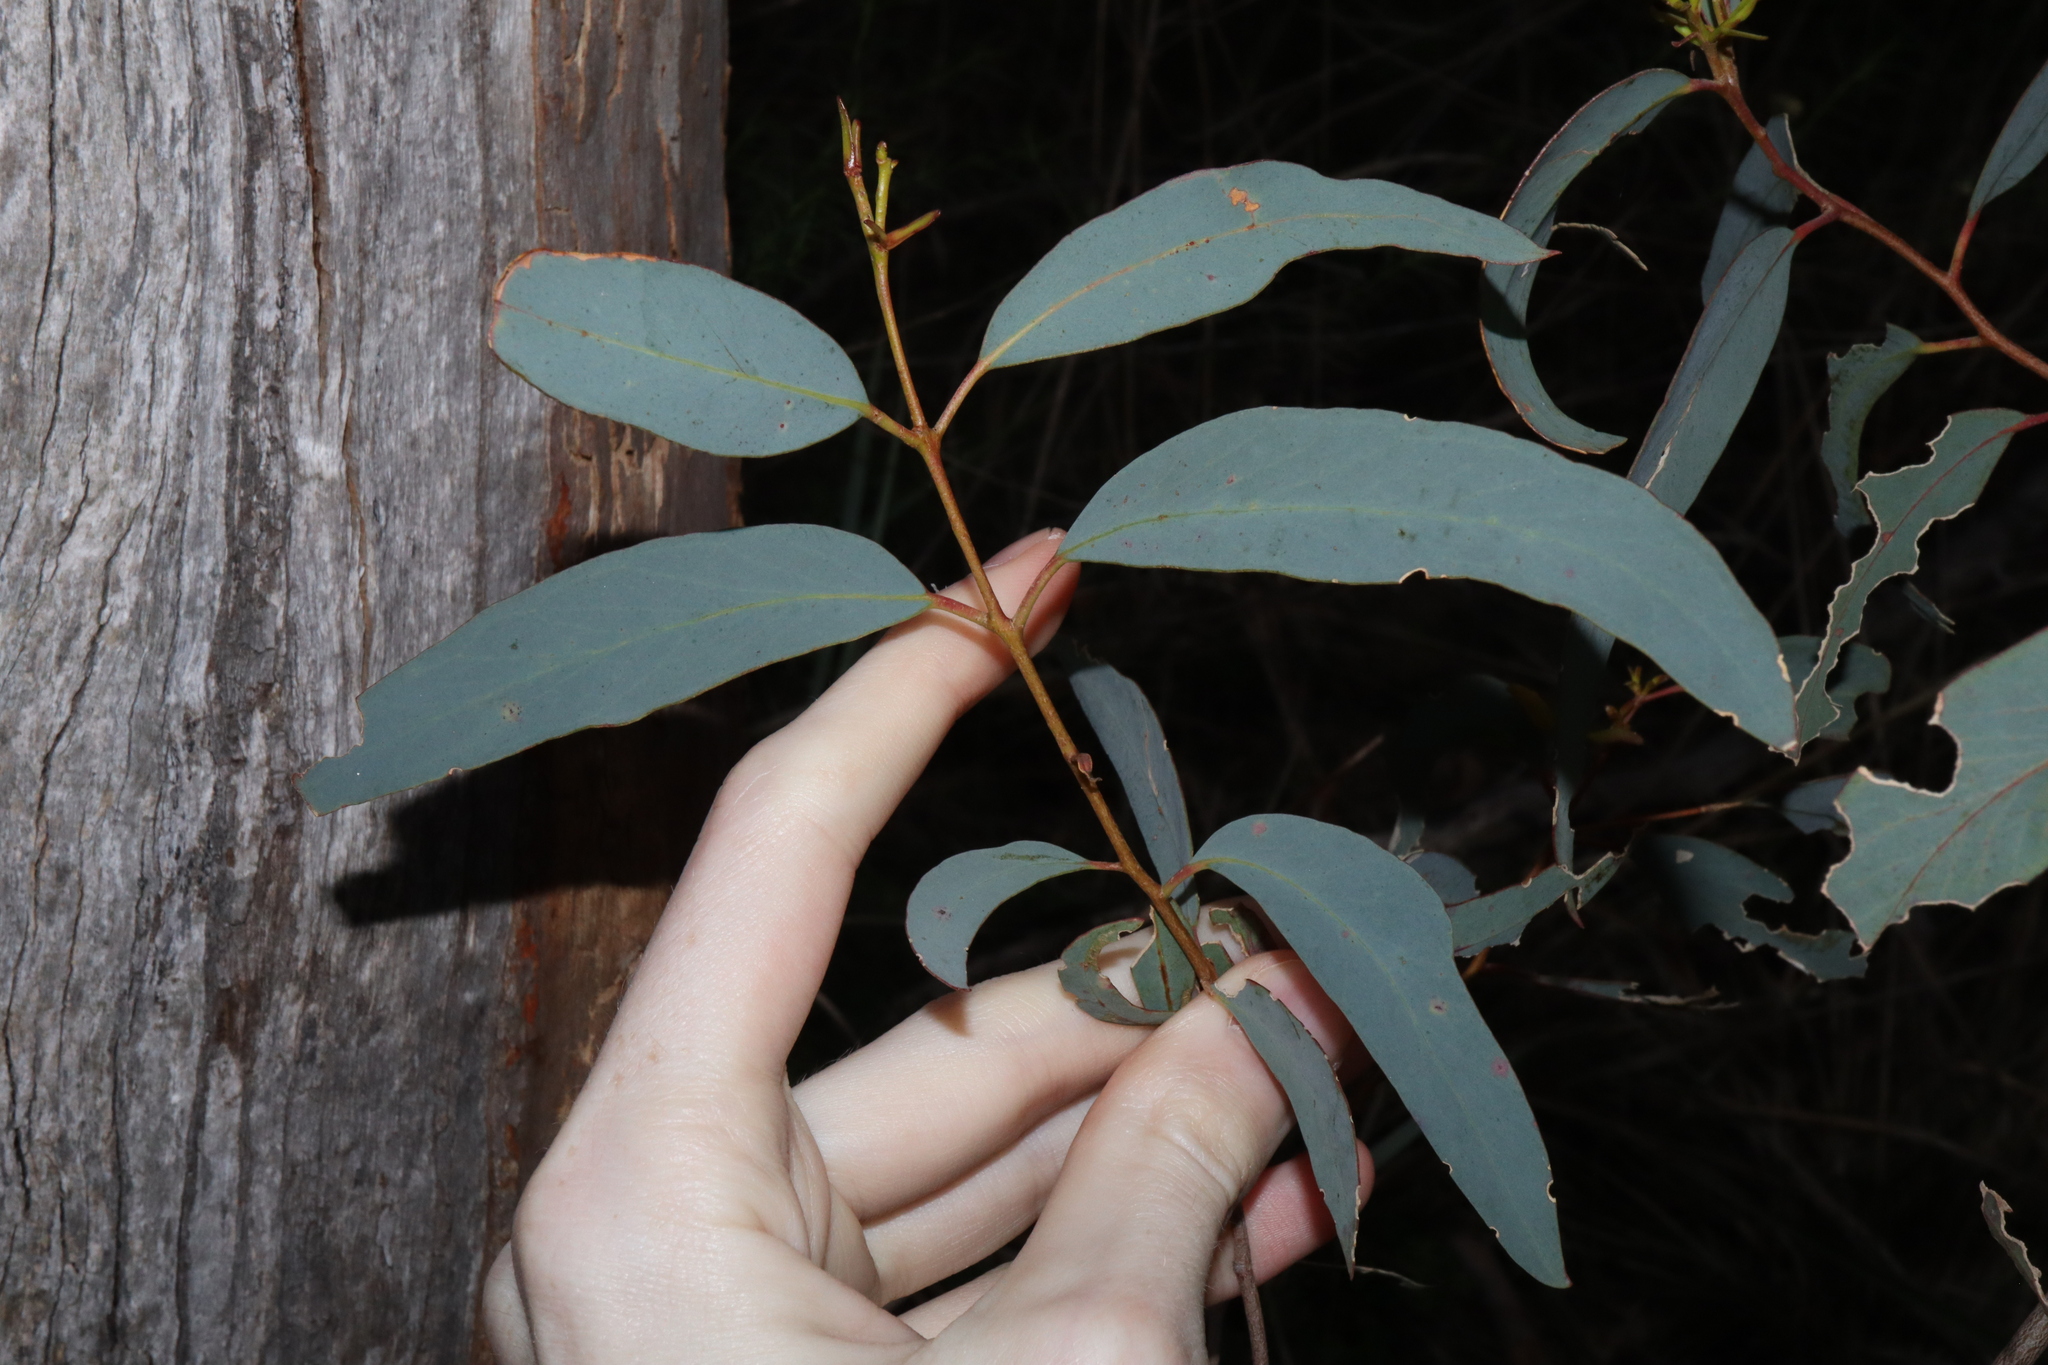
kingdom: Plantae
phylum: Tracheophyta
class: Magnoliopsida
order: Myrtales
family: Myrtaceae
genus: Eucalyptus
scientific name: Eucalyptus racemosa
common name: Scribbly gum
